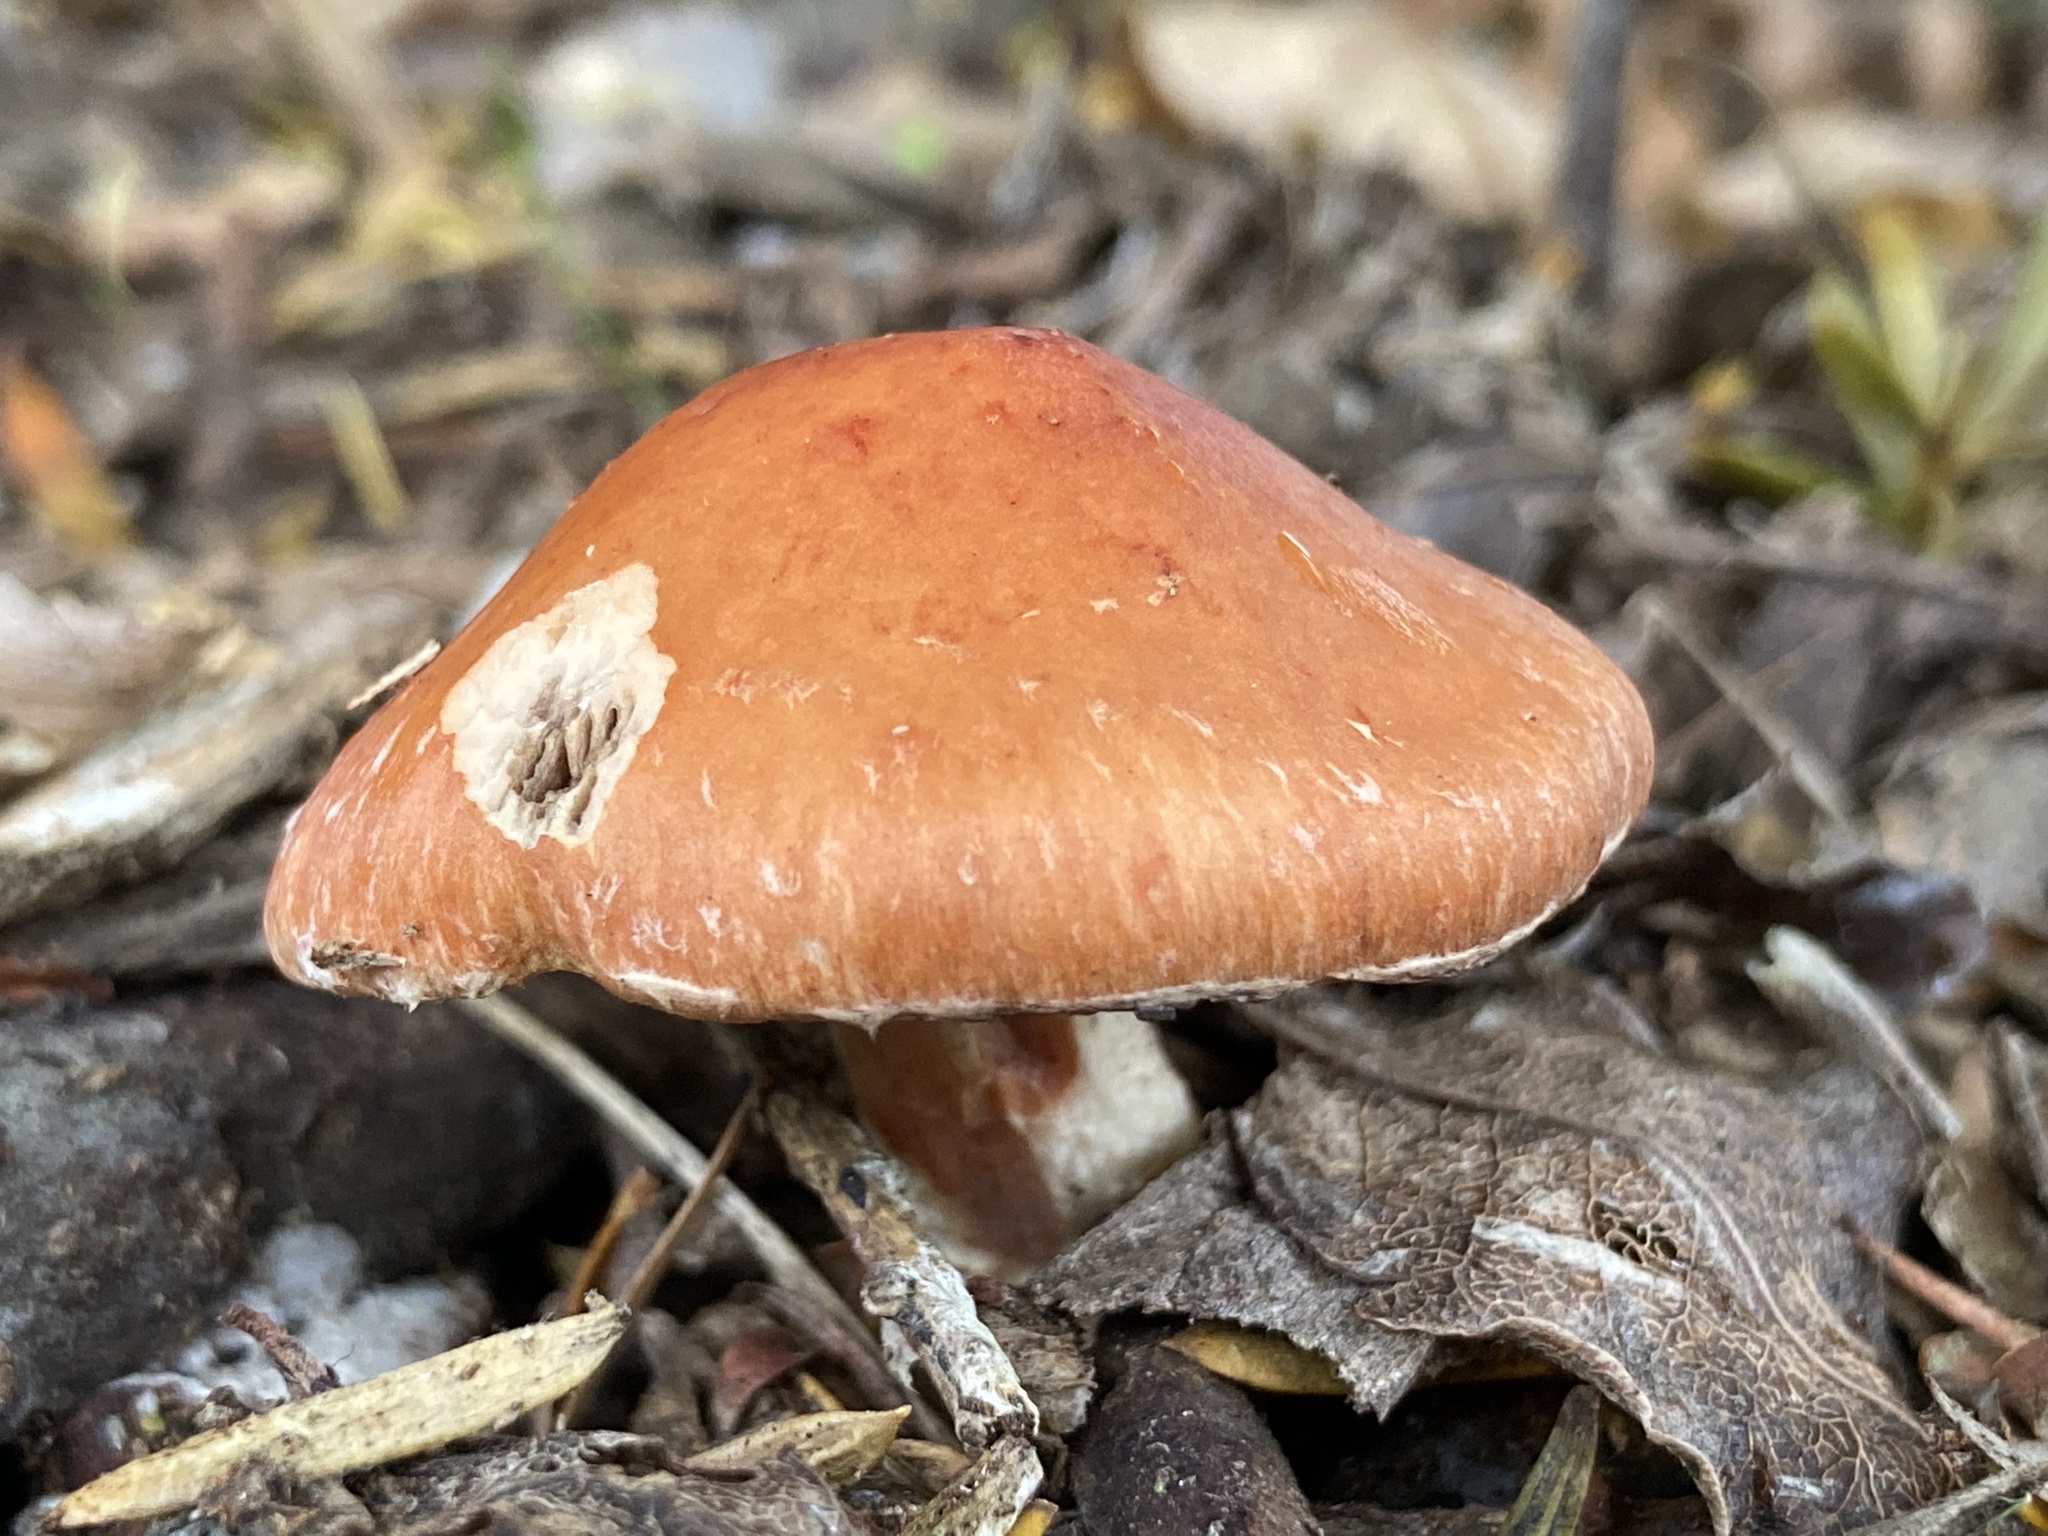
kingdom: Fungi
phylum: Basidiomycota
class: Agaricomycetes
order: Agaricales
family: Strophariaceae
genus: Leratiomyces
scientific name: Leratiomyces ceres
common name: Redlead roundhead
